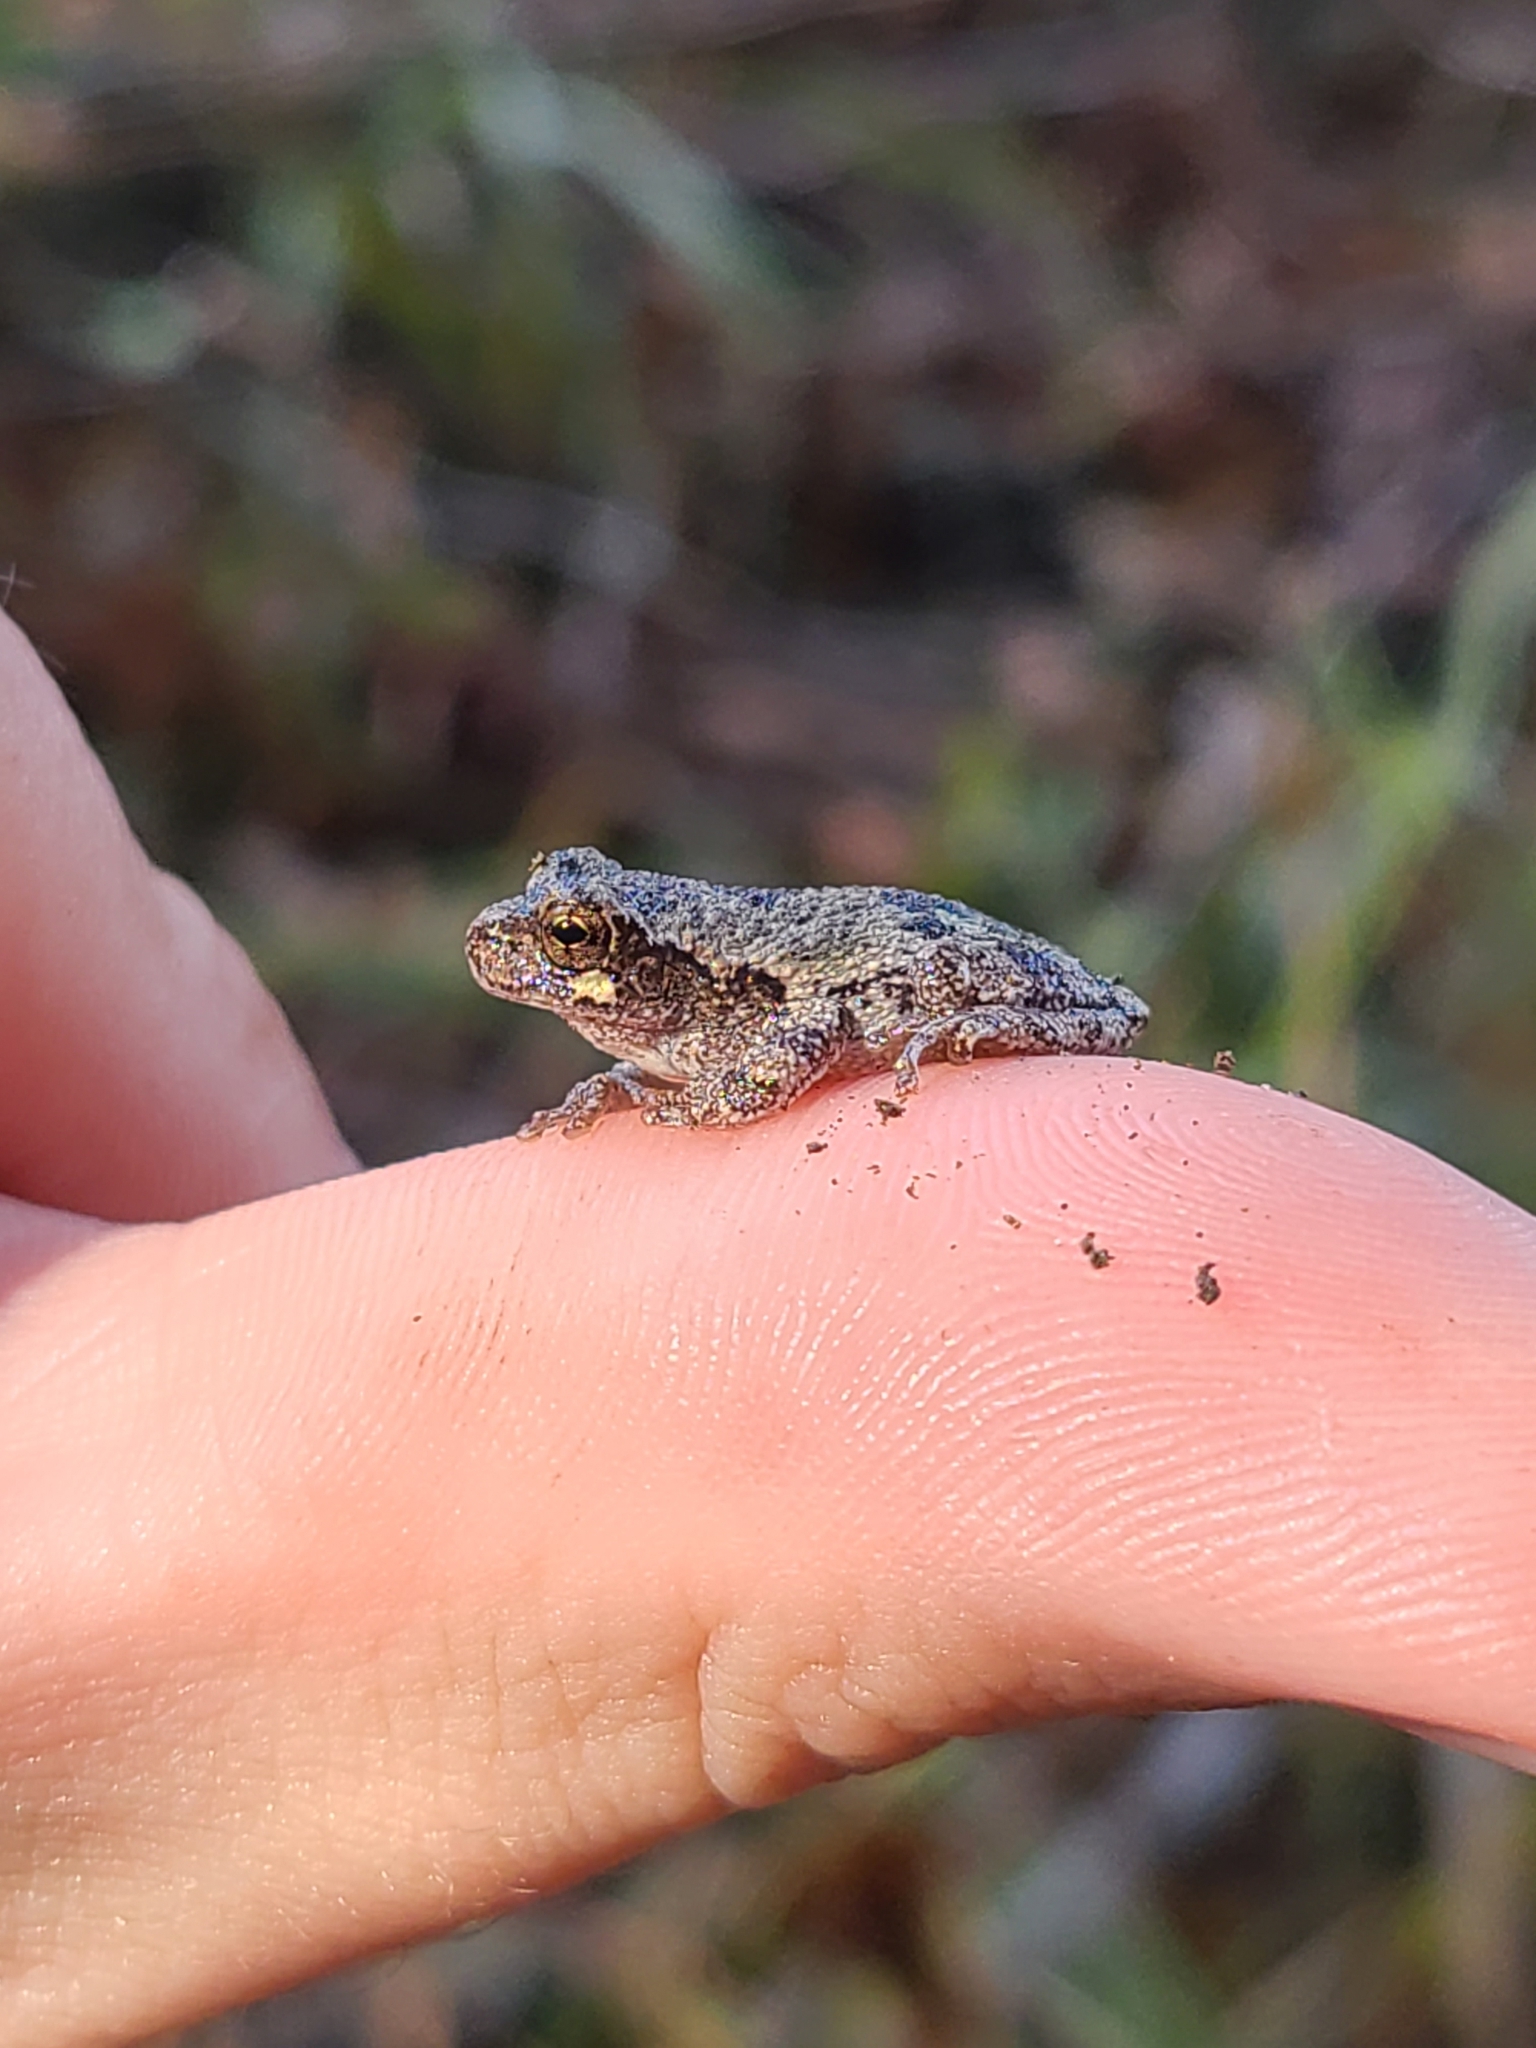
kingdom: Animalia
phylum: Chordata
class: Amphibia
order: Anura
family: Hylidae
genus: Dryophytes
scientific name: Dryophytes chrysoscelis
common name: Cope's gray treefrog
